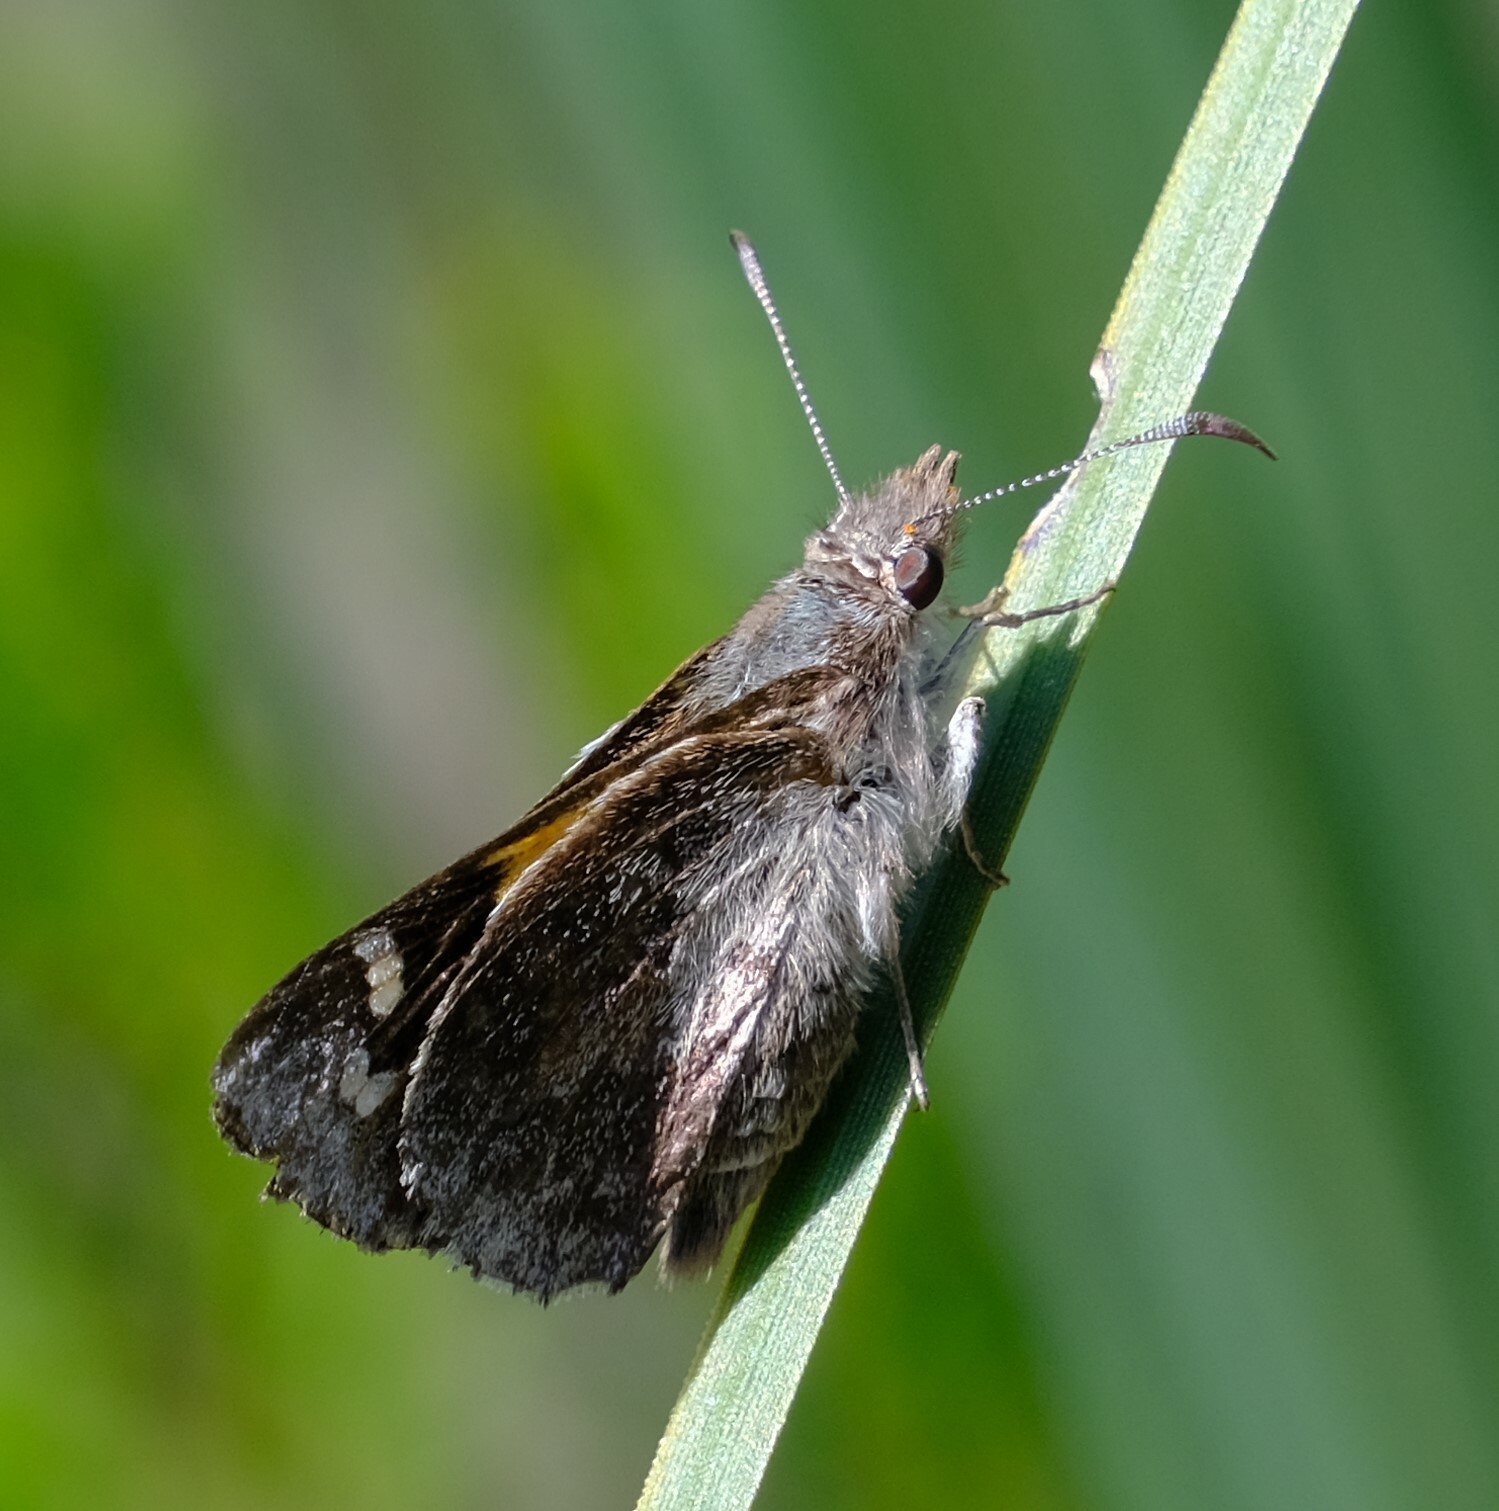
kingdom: Animalia
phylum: Arthropoda
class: Insecta
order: Lepidoptera
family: Hesperiidae
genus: Antipodia
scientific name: Antipodia chaostola
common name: Antipodia skipper
